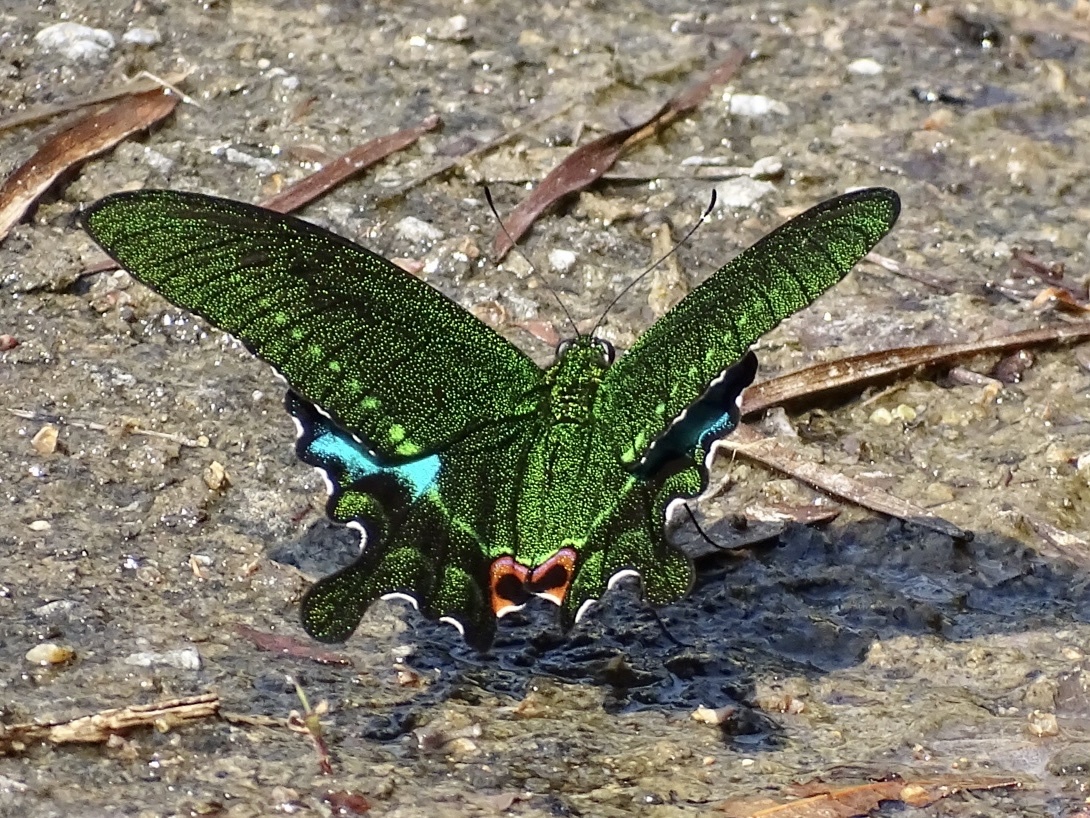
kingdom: Animalia
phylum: Arthropoda
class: Insecta
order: Lepidoptera
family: Papilionidae
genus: Papilio
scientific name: Papilio paris
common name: Paris peacock
